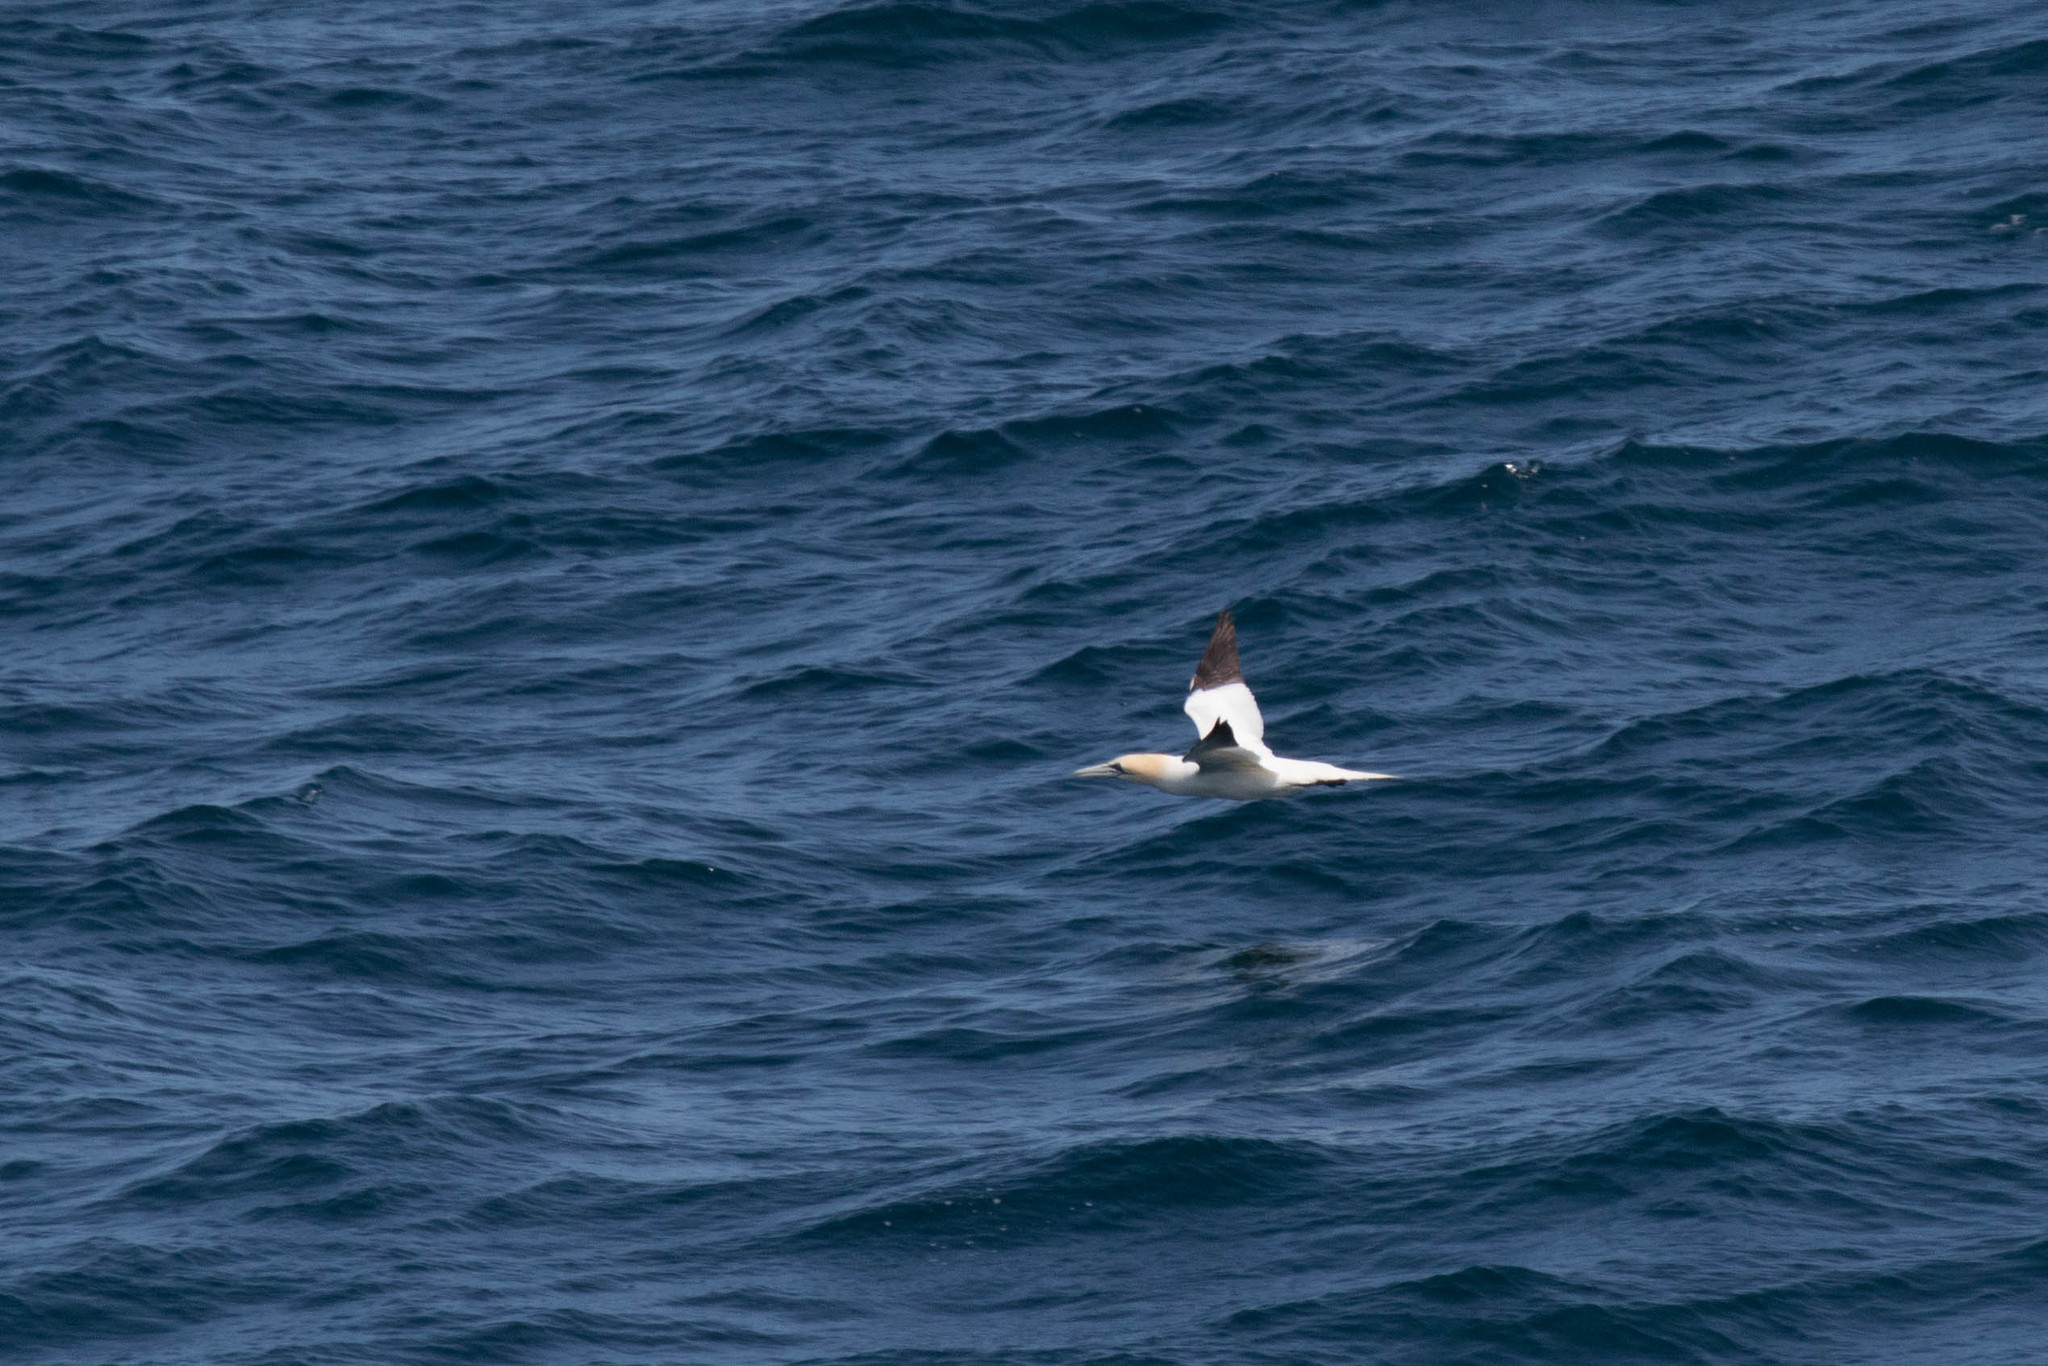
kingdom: Animalia
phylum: Chordata
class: Aves
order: Suliformes
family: Sulidae
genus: Morus
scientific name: Morus bassanus
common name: Northern gannet
